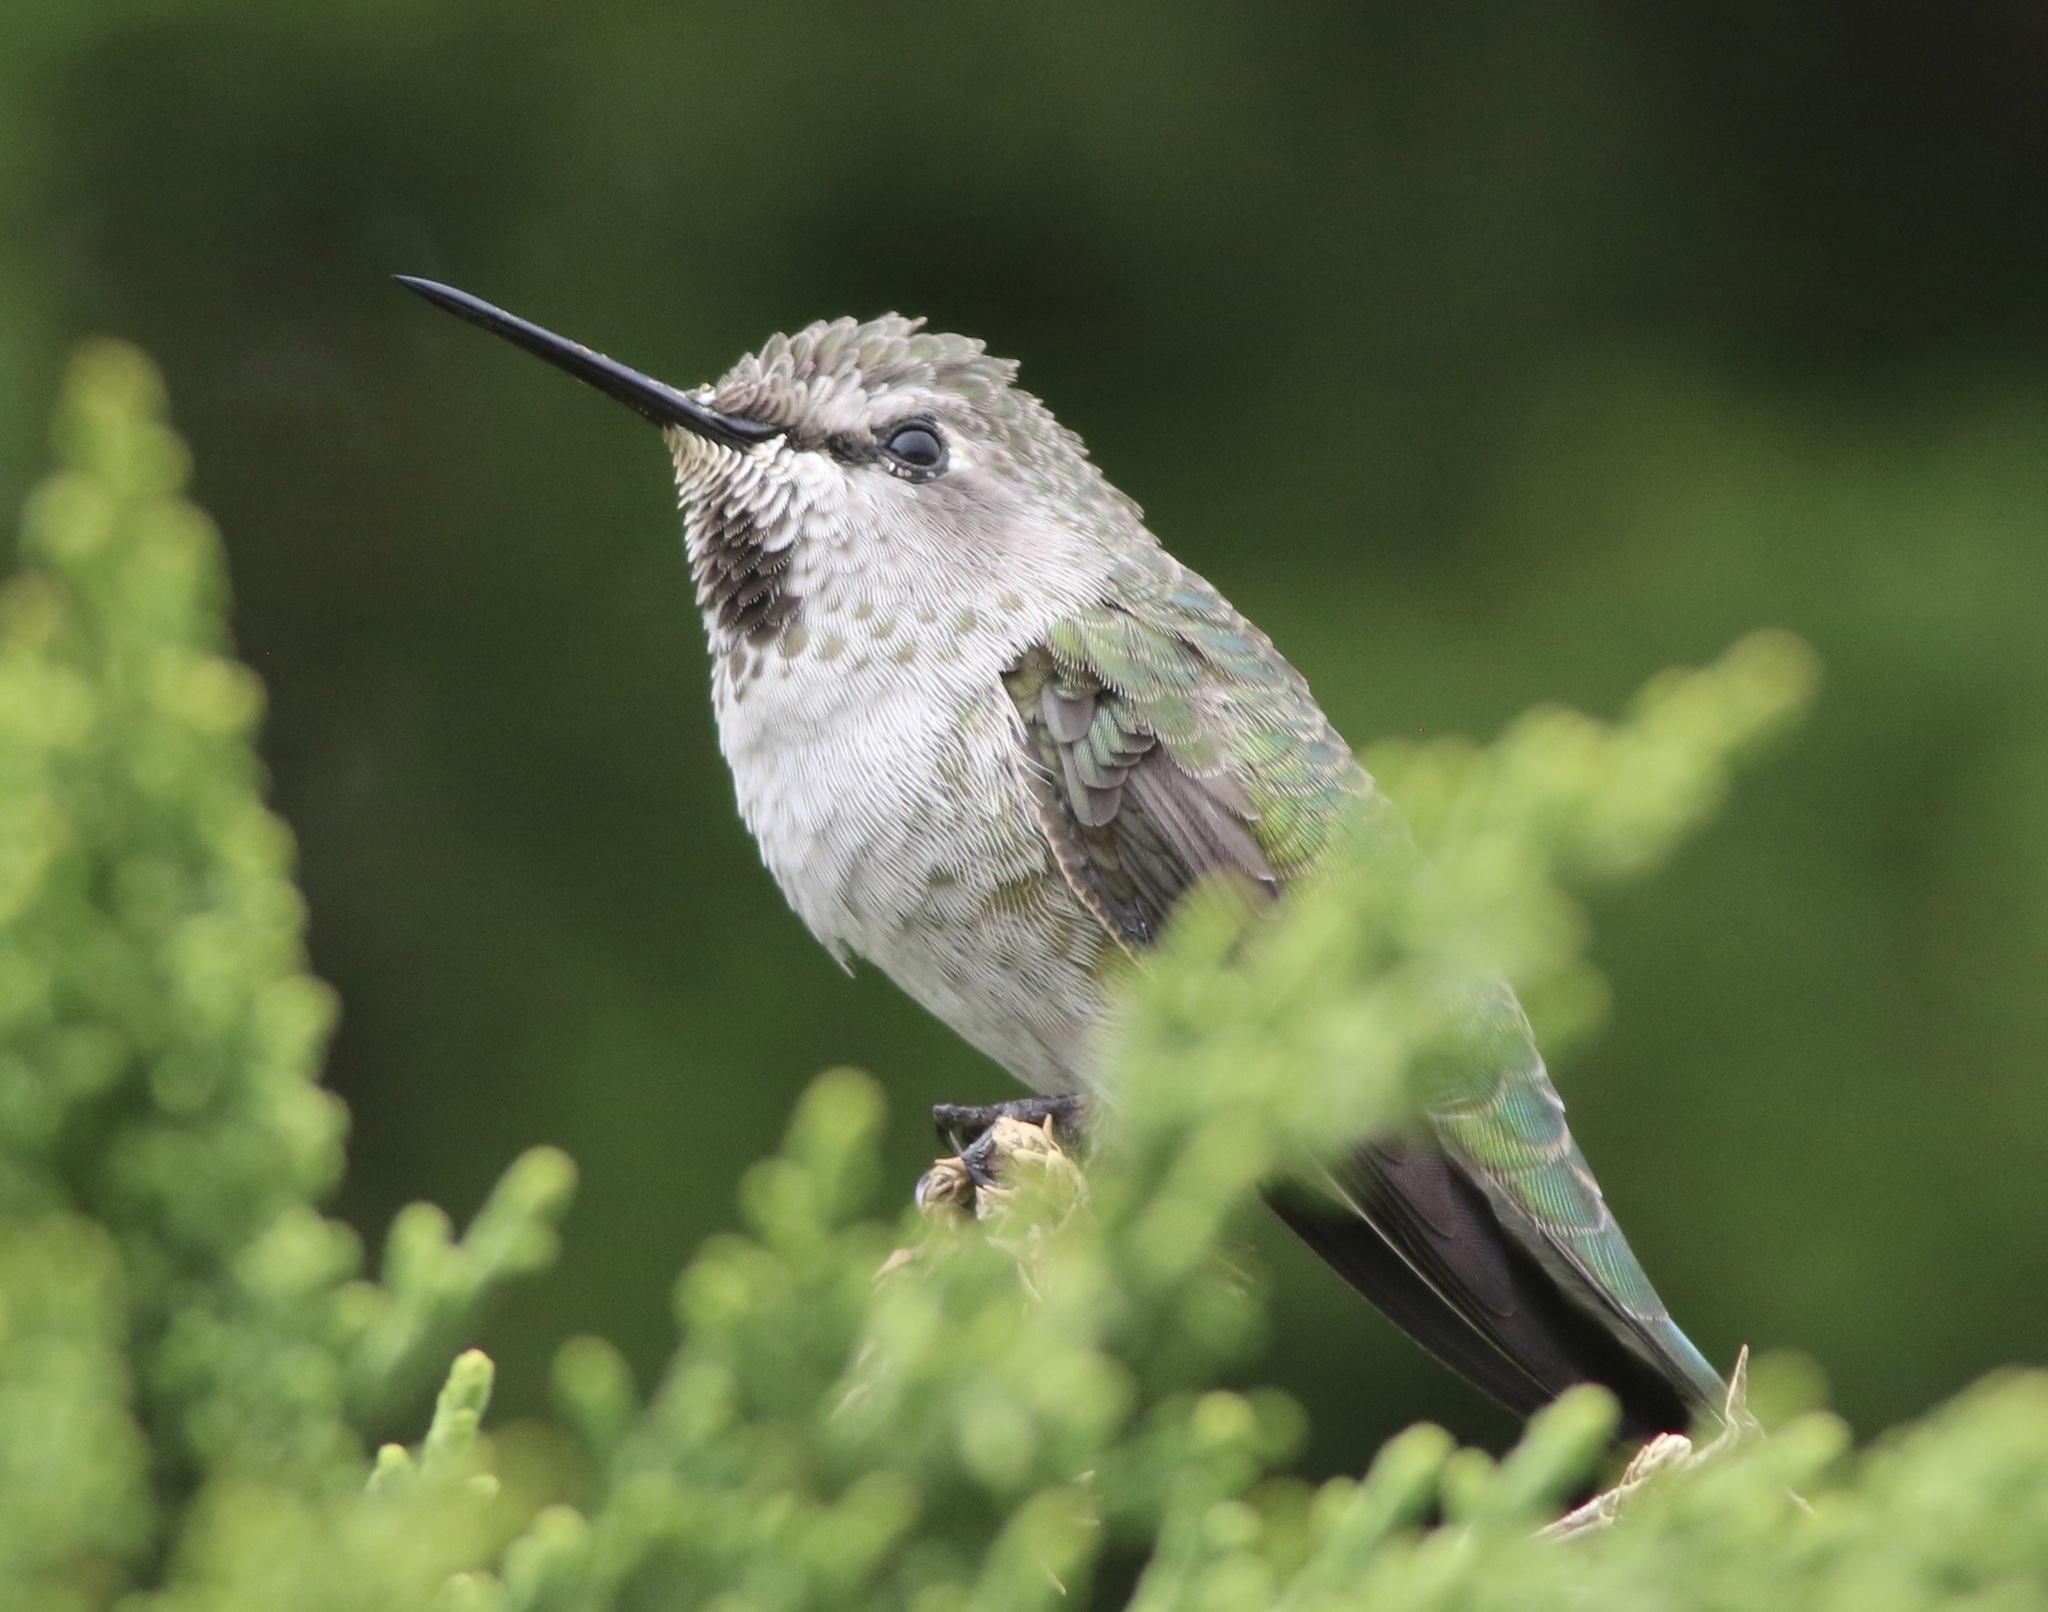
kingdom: Animalia
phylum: Chordata
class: Aves
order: Apodiformes
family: Trochilidae
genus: Calypte
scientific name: Calypte anna
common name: Anna's hummingbird
